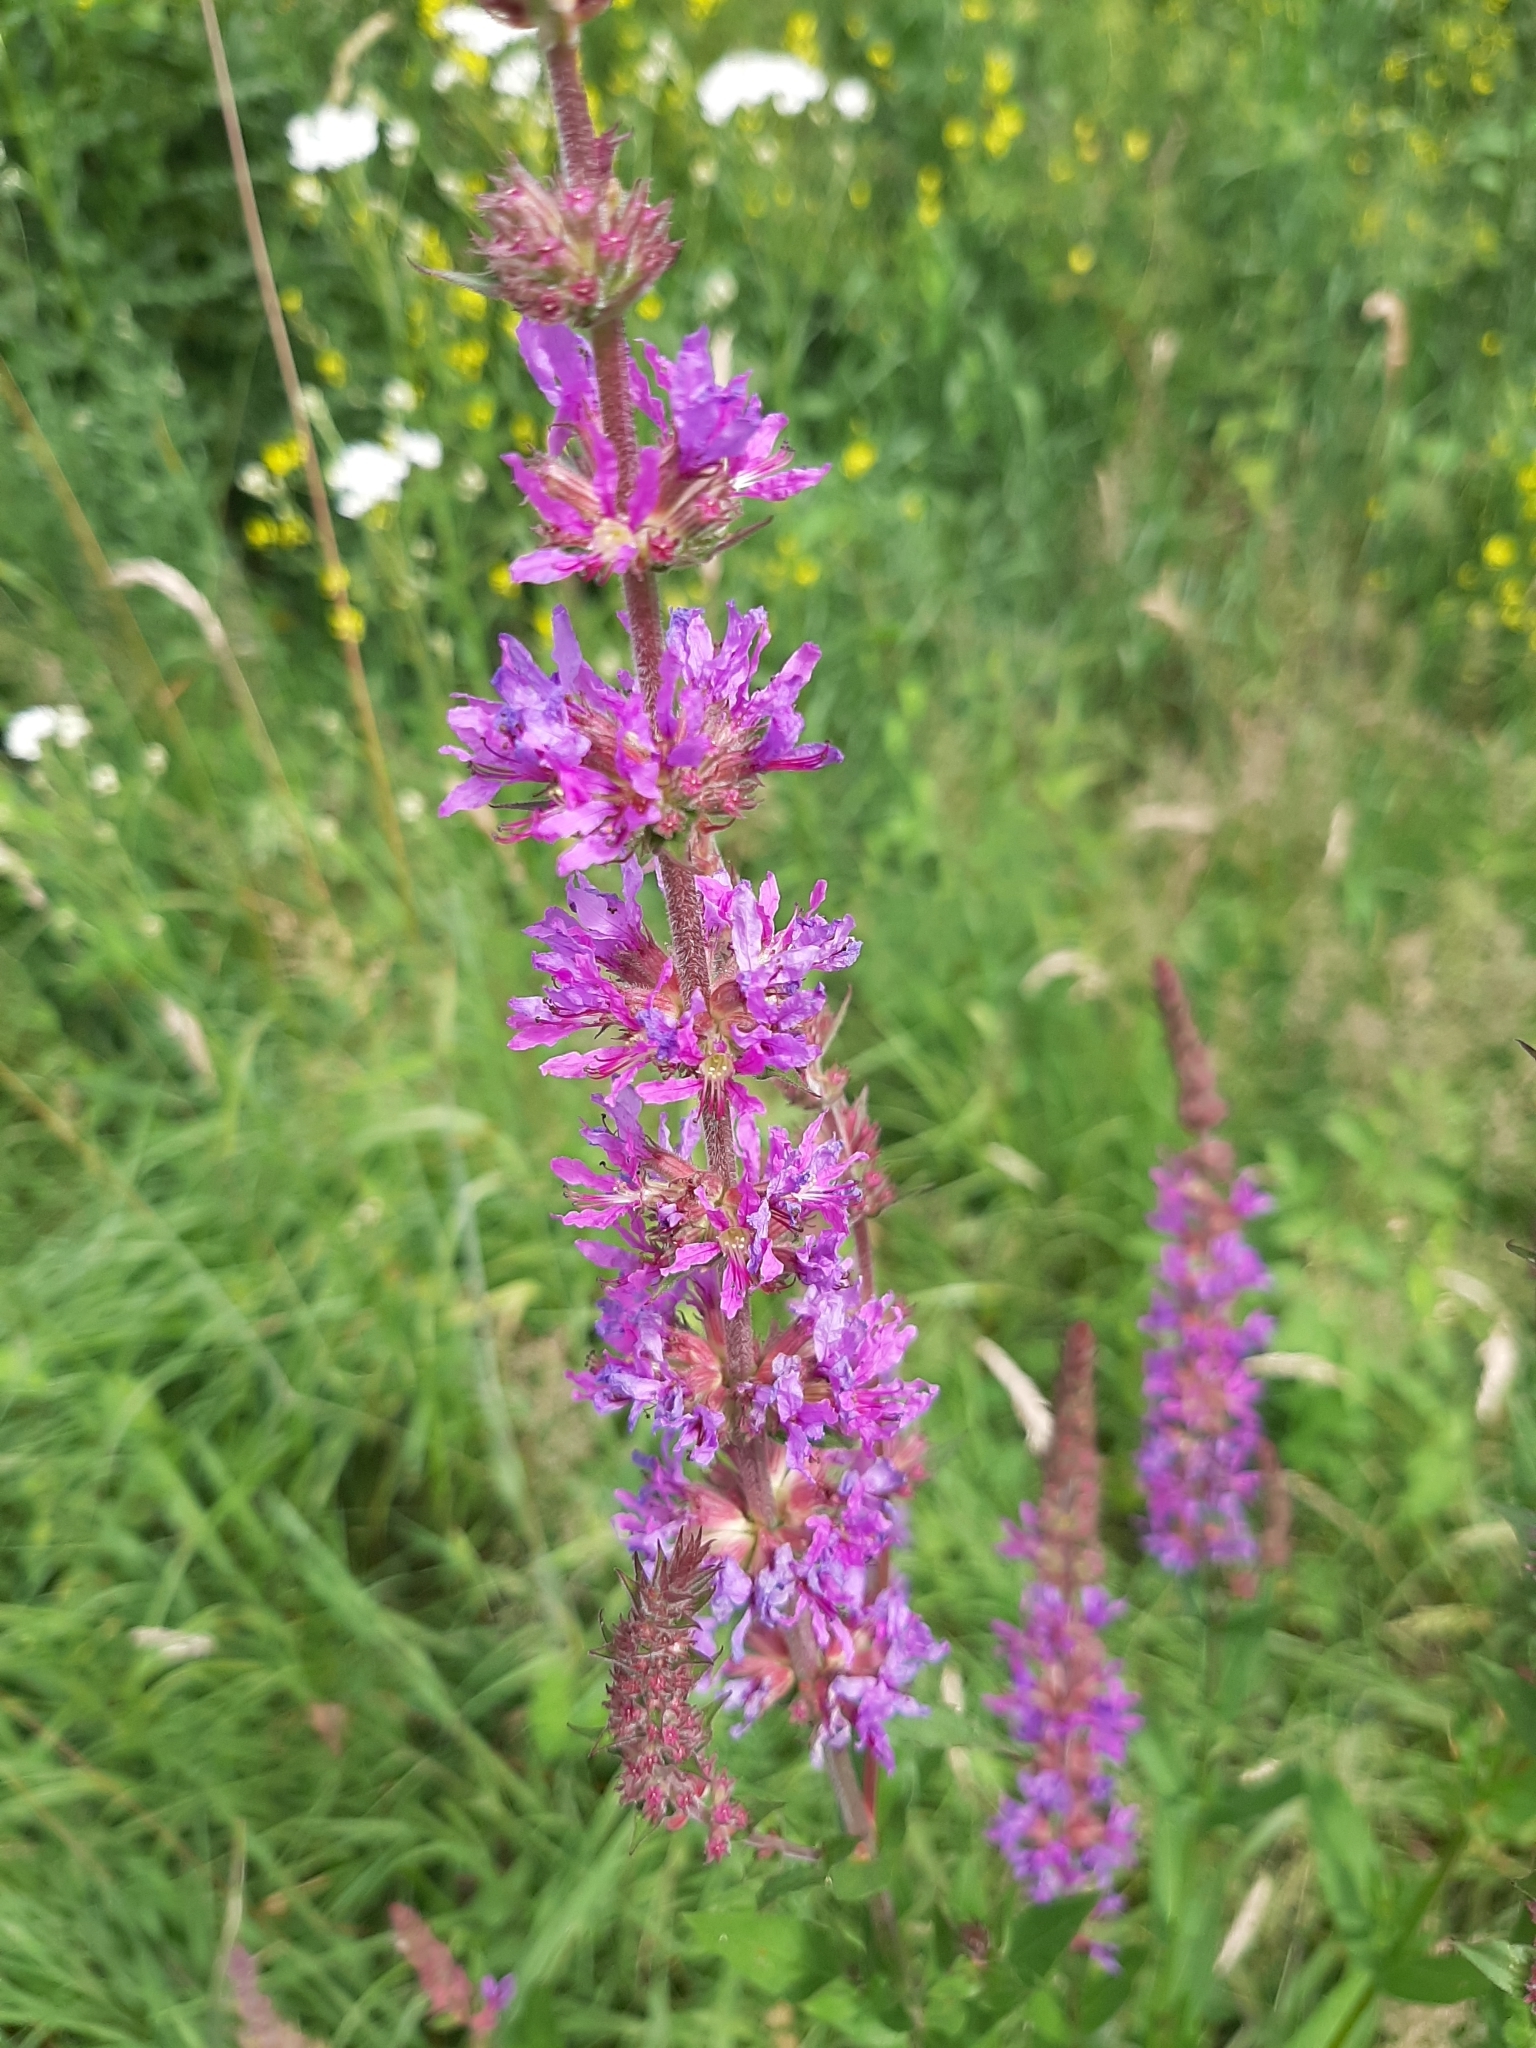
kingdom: Plantae
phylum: Tracheophyta
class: Magnoliopsida
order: Myrtales
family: Lythraceae
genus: Lythrum
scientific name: Lythrum salicaria
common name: Purple loosestrife
